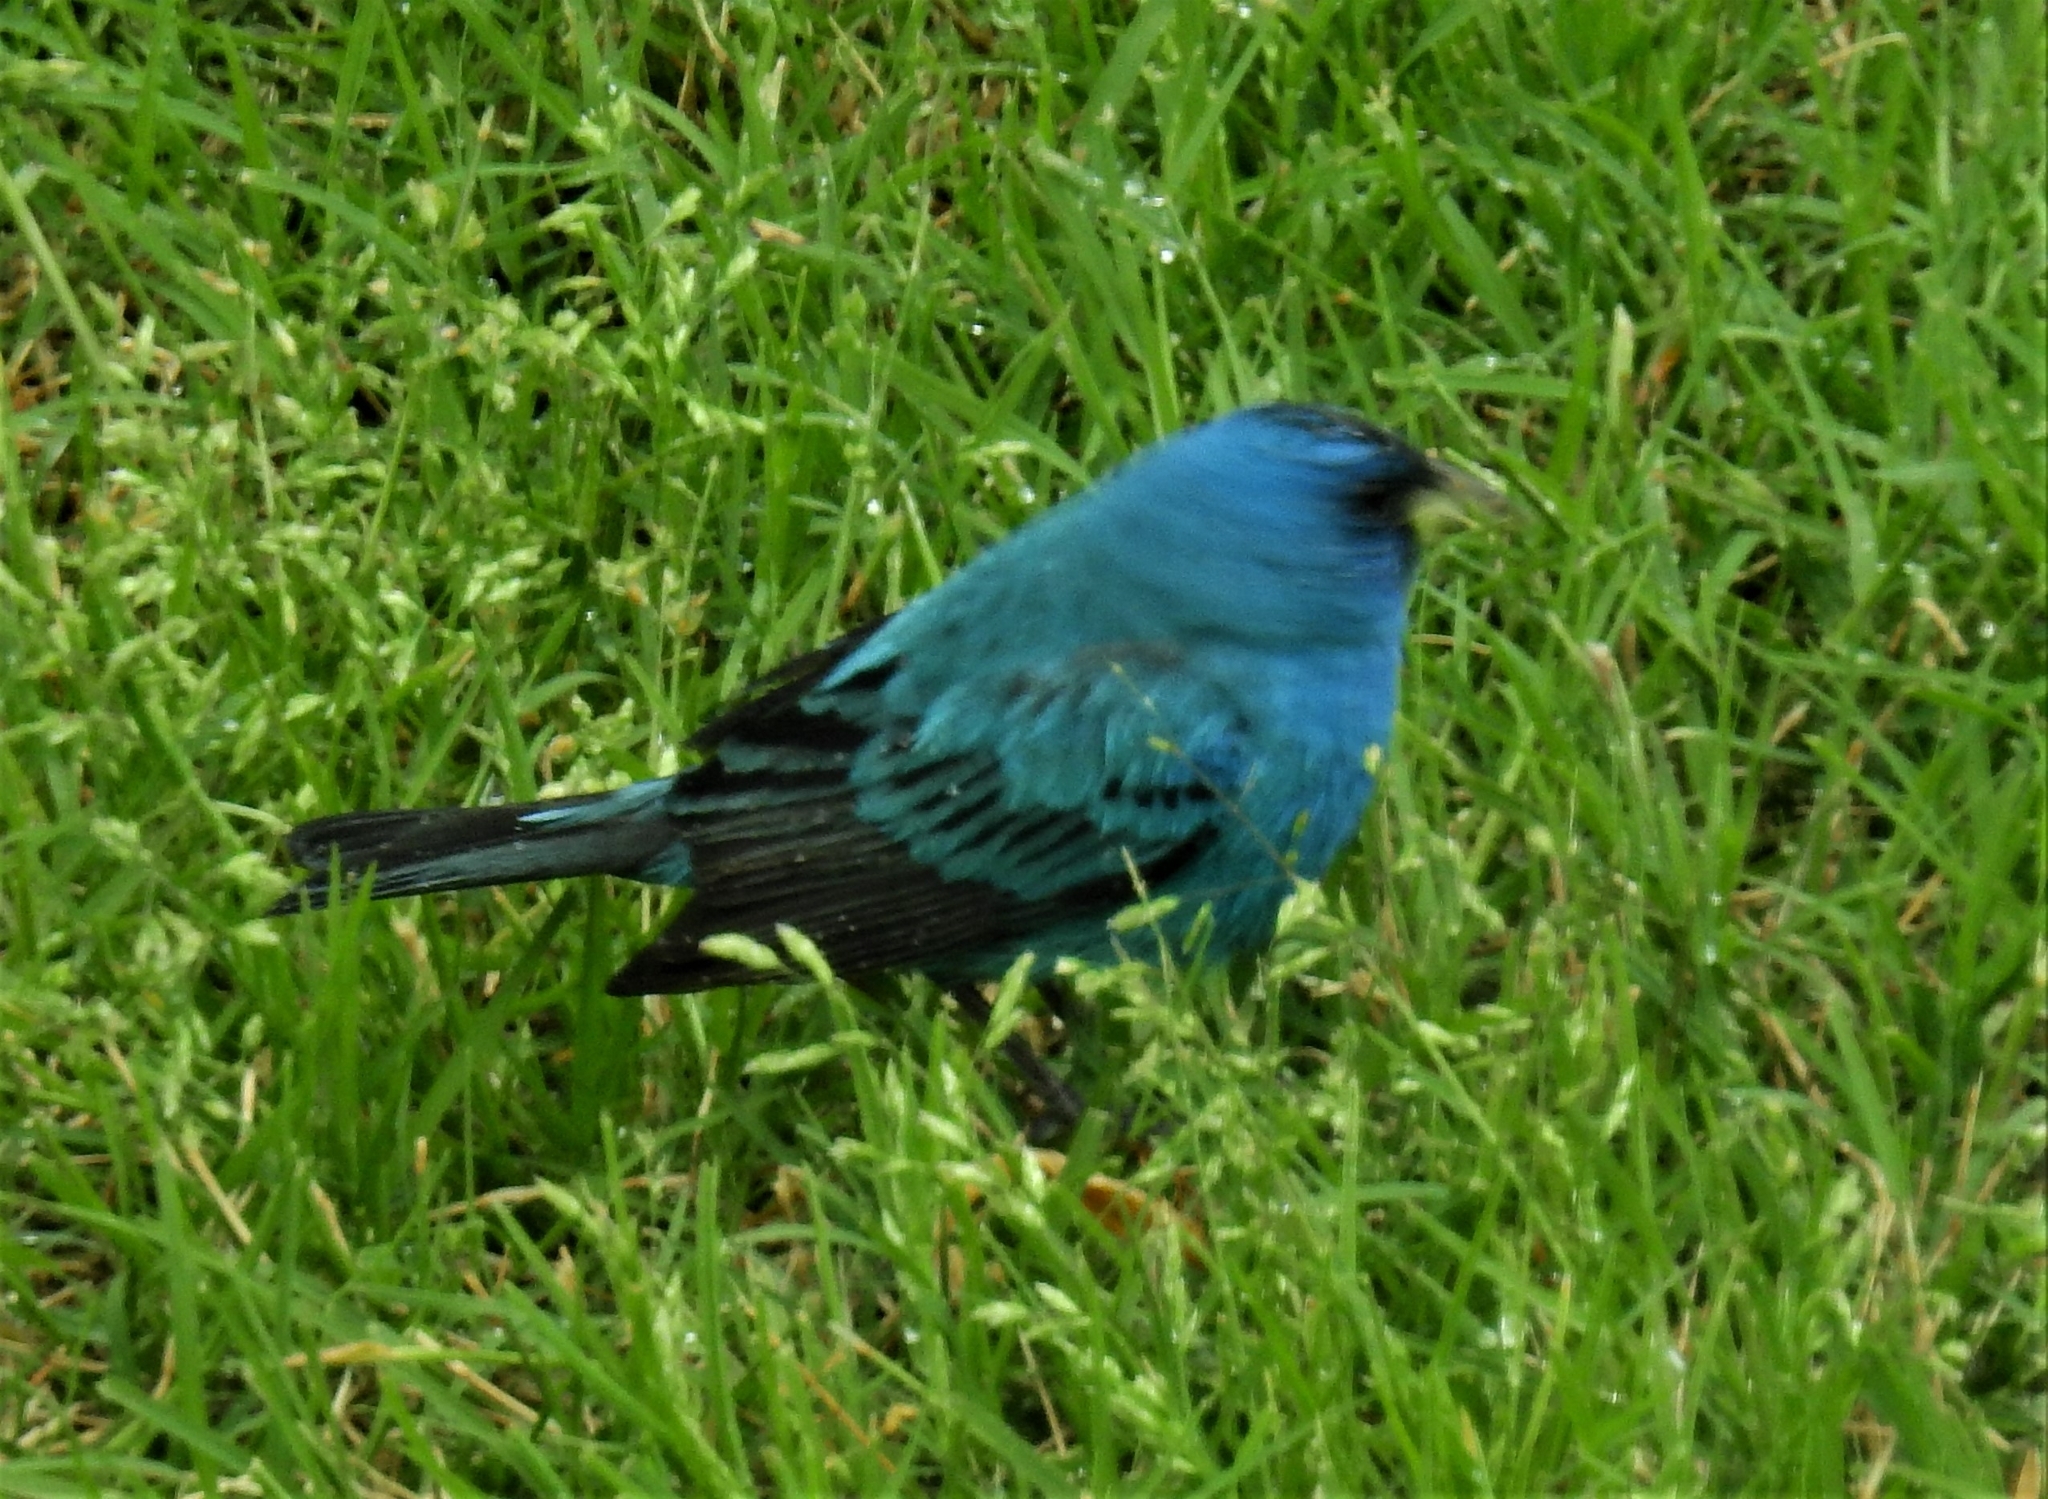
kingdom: Animalia
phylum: Chordata
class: Aves
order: Passeriformes
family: Cardinalidae
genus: Passerina
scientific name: Passerina cyanea
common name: Indigo bunting
